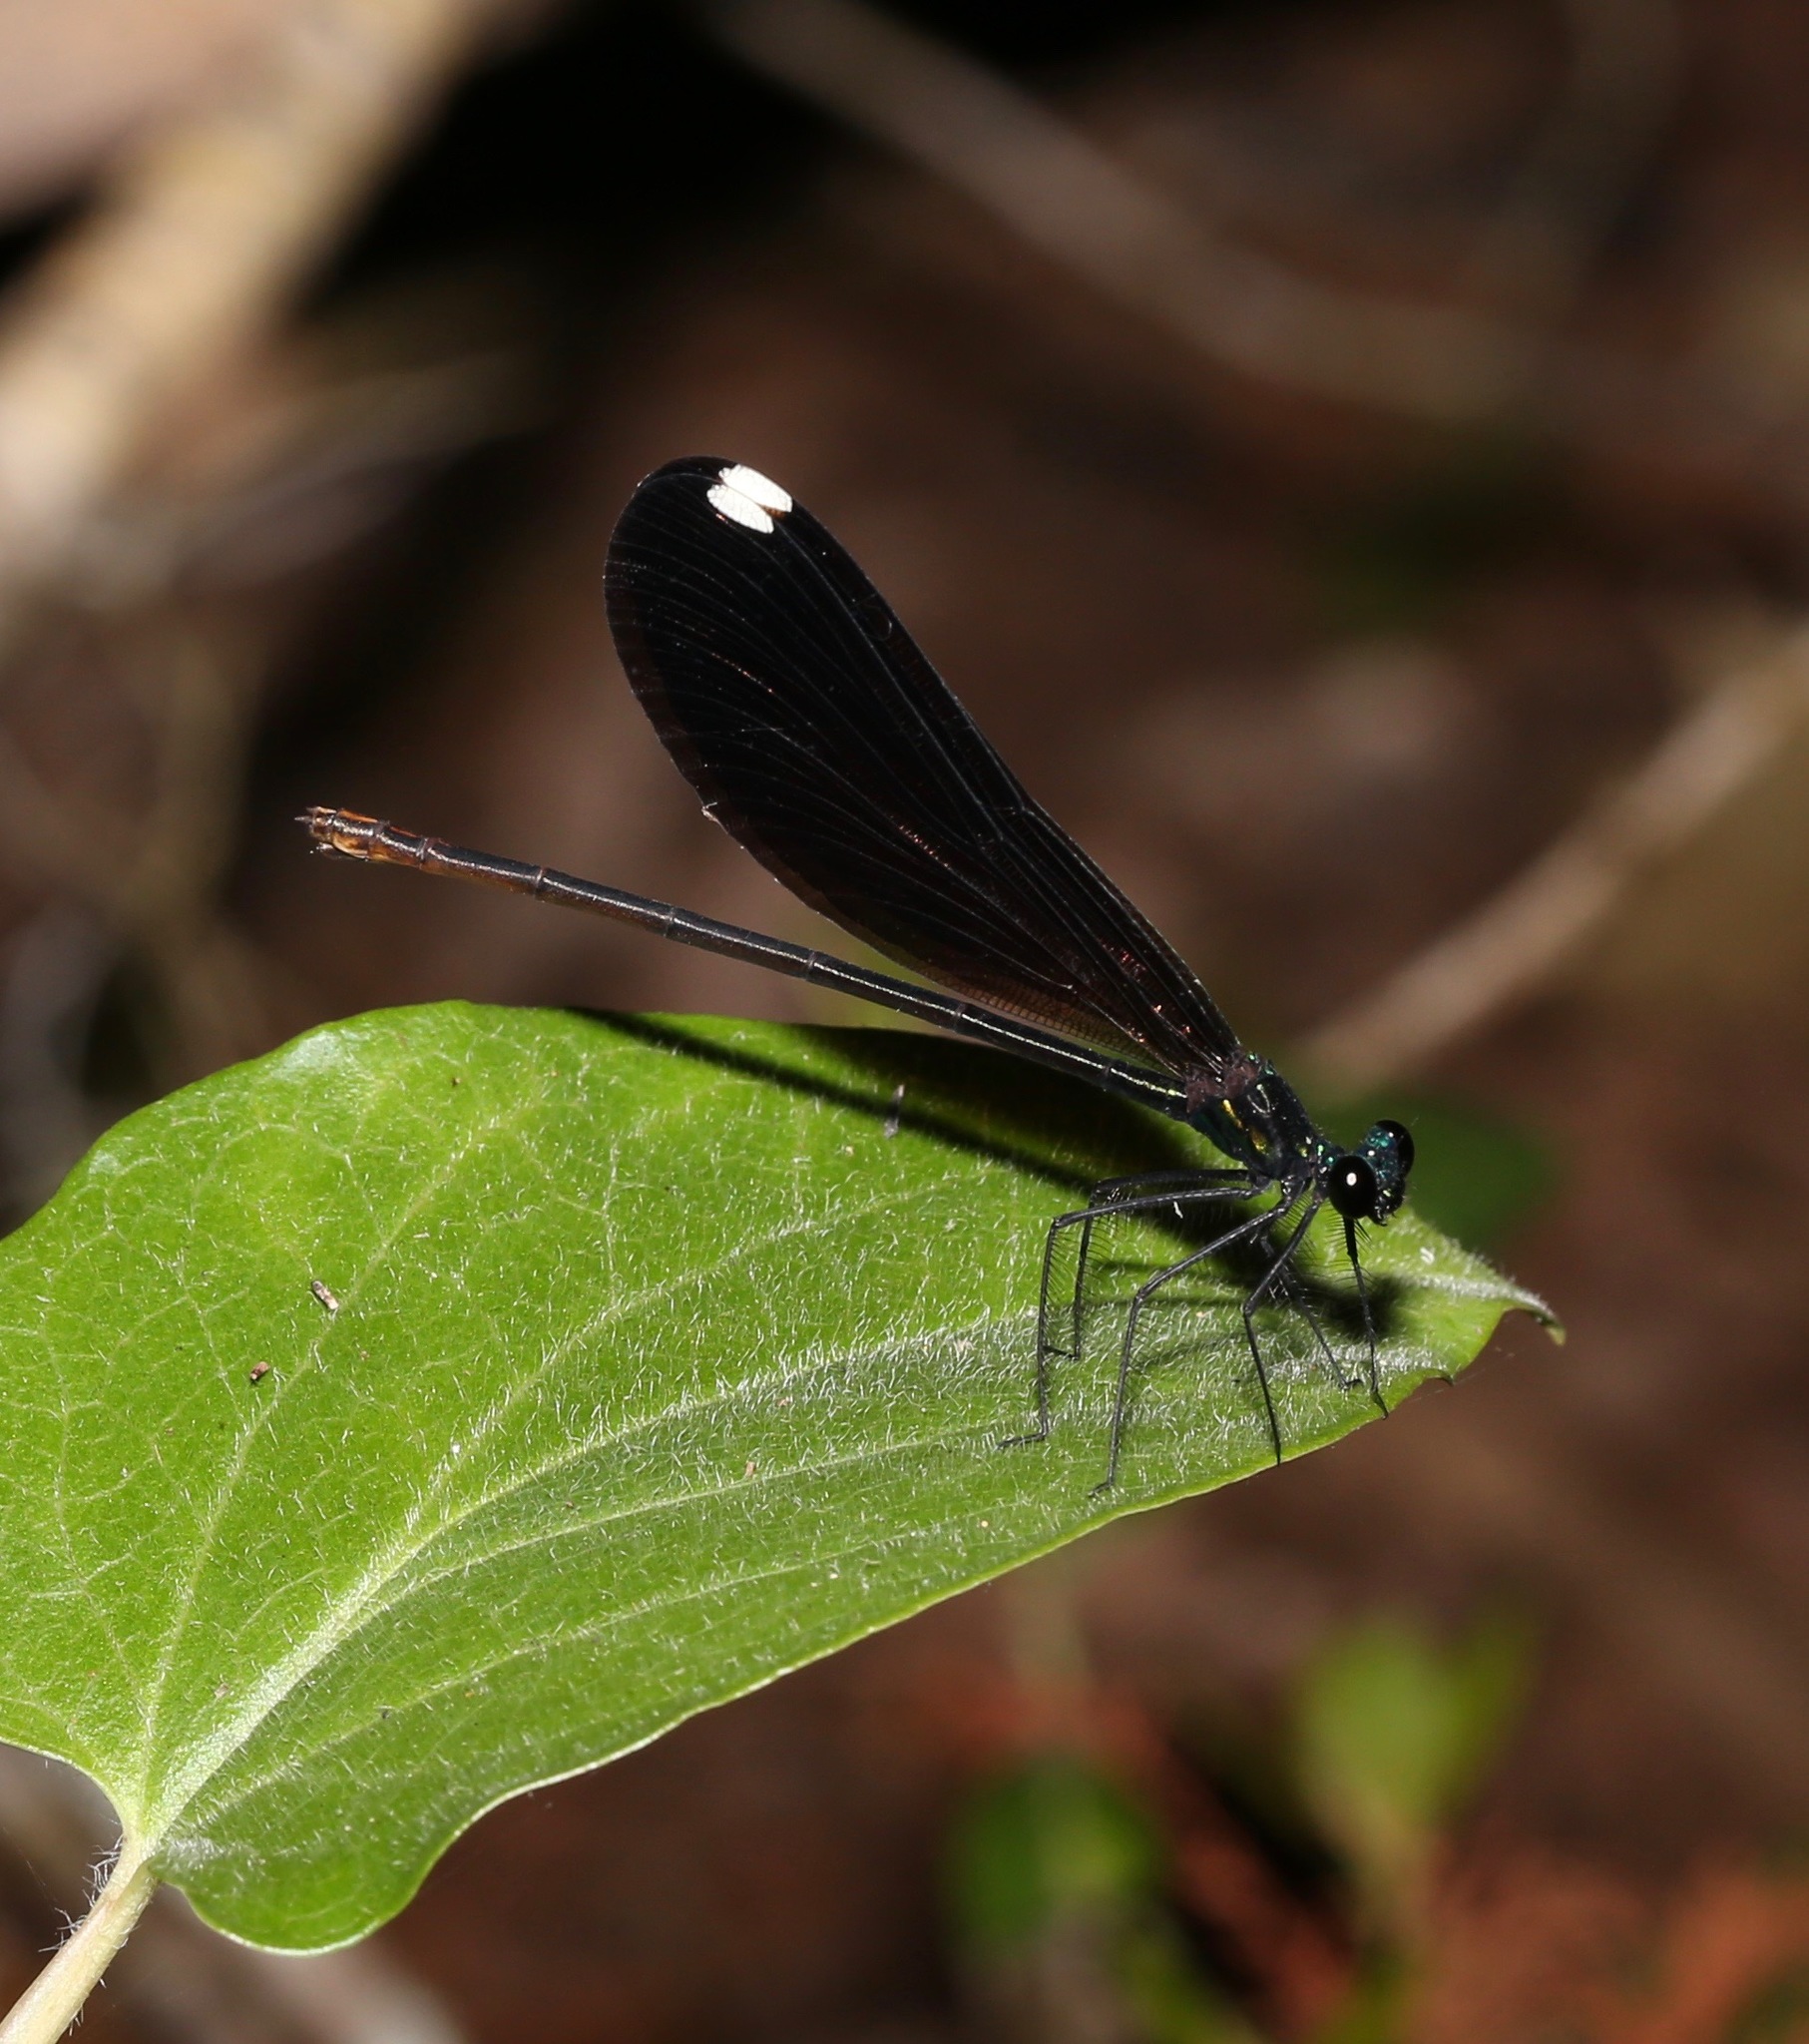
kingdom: Animalia
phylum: Arthropoda
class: Insecta
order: Odonata
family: Calopterygidae
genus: Calopteryx
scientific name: Calopteryx maculata
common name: Ebony jewelwing
